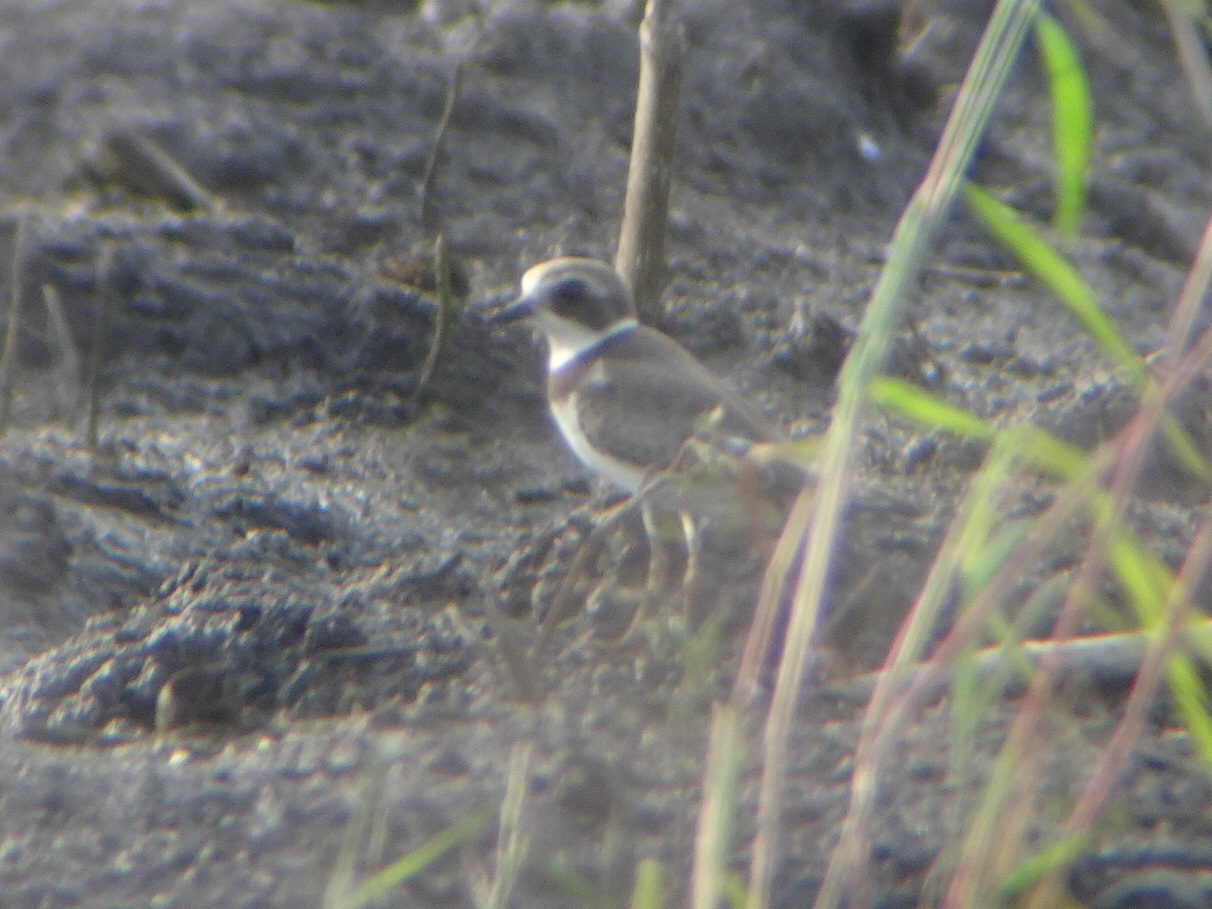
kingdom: Animalia
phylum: Chordata
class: Aves
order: Charadriiformes
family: Charadriidae
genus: Charadrius
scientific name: Charadrius semipalmatus
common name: Semipalmated plover
